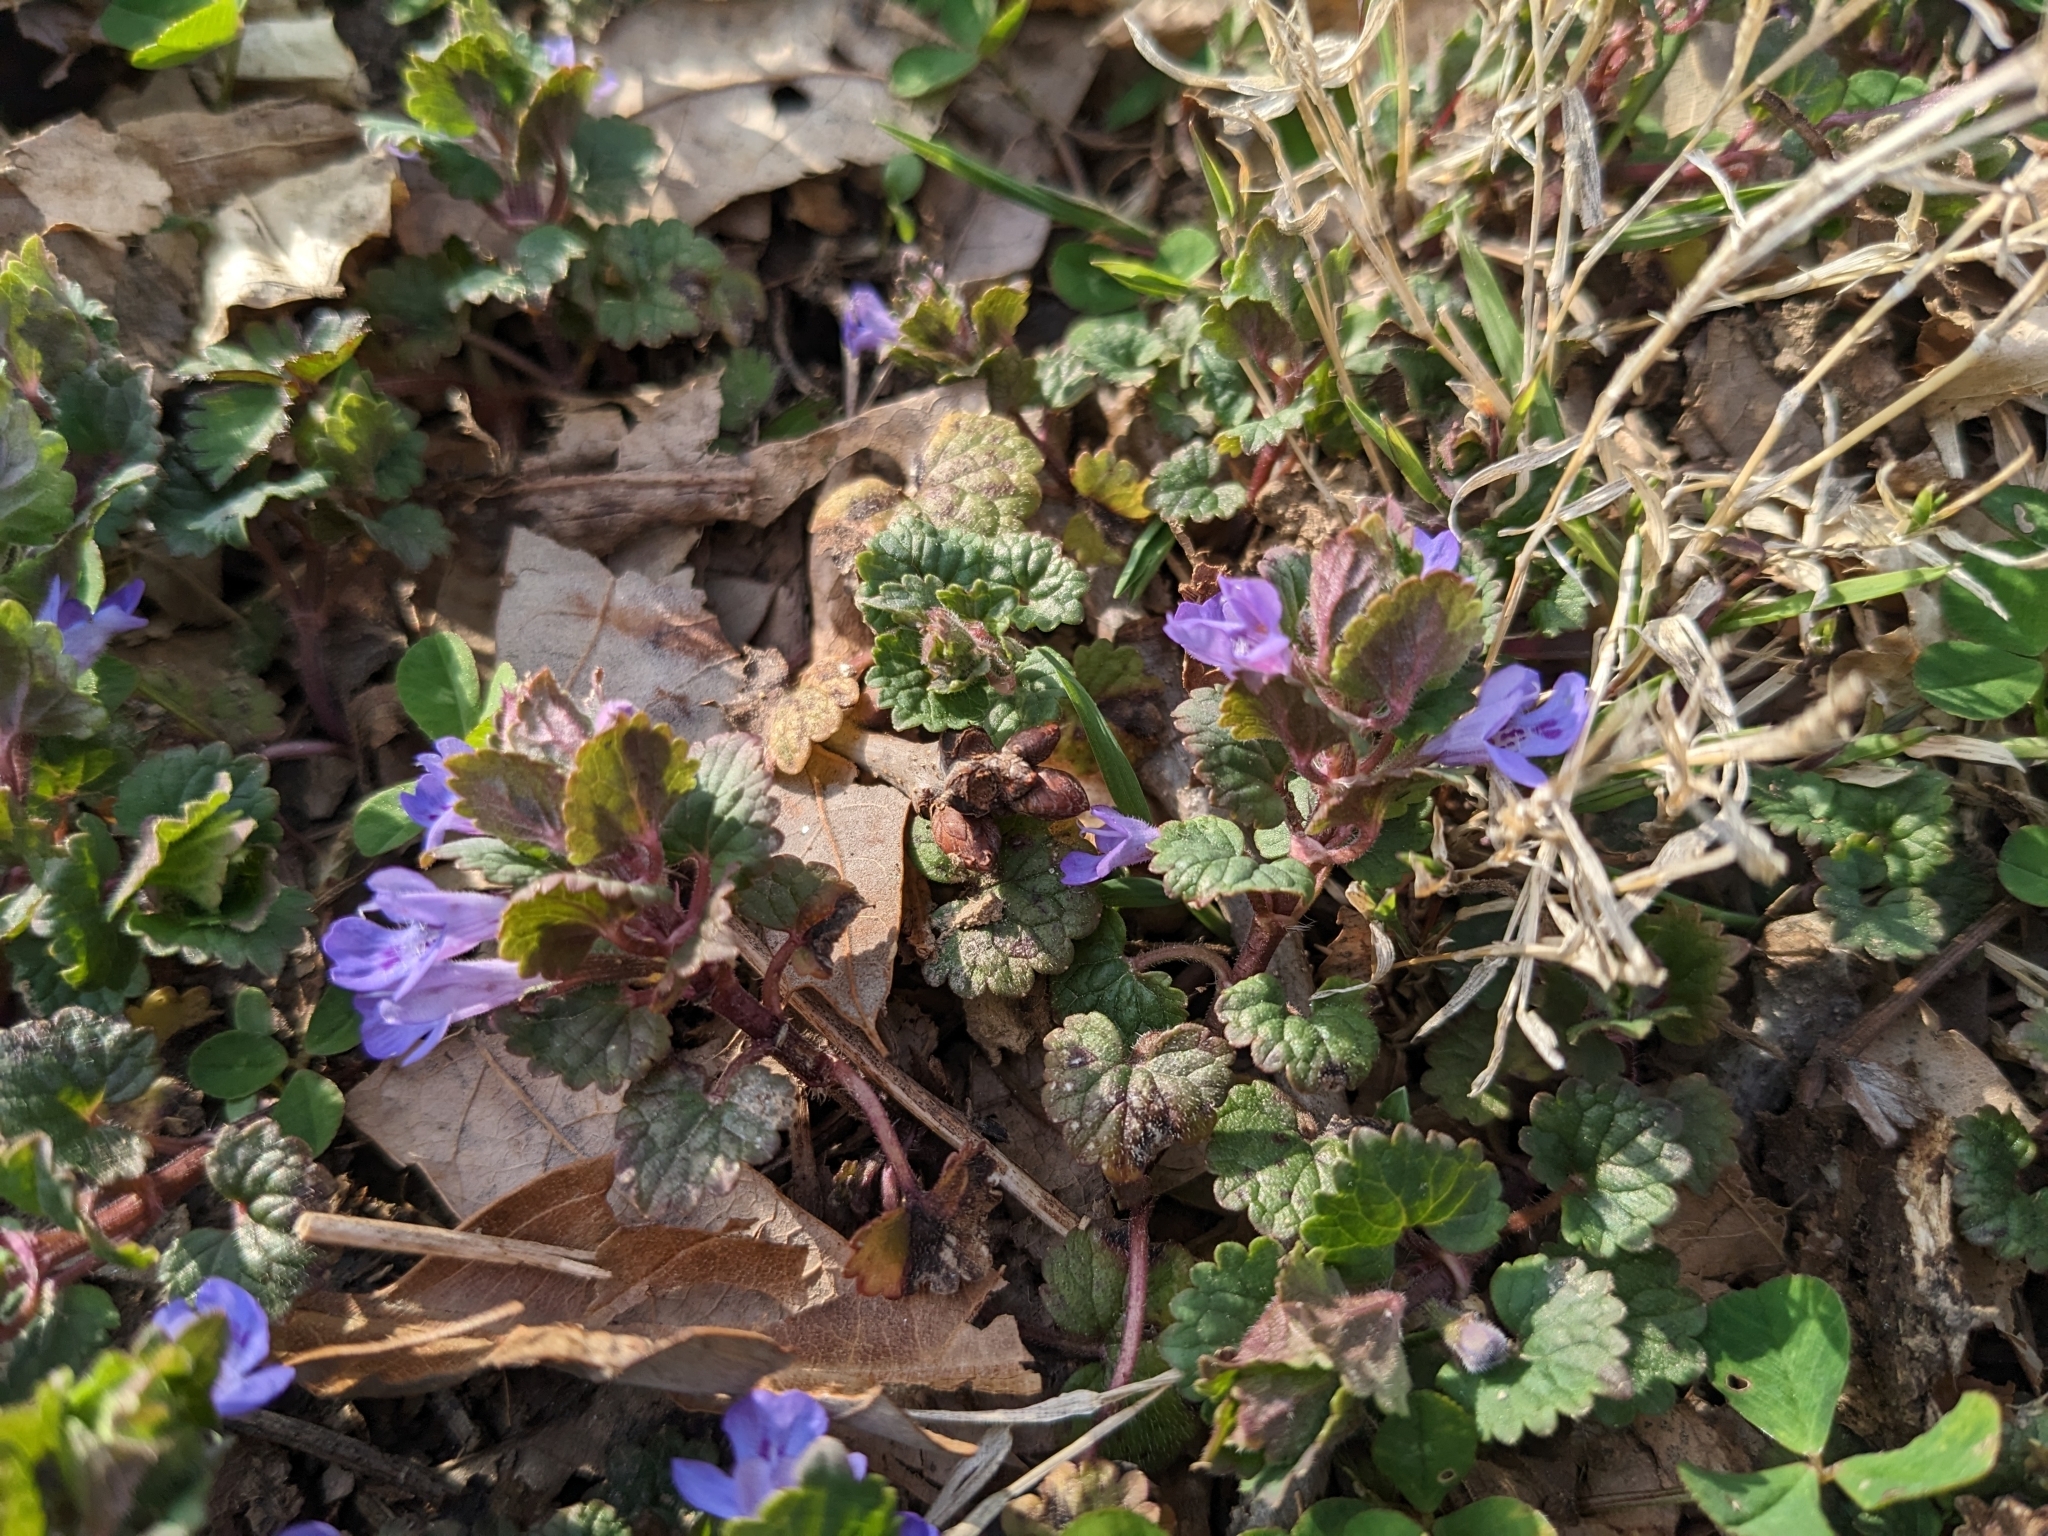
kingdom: Plantae
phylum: Tracheophyta
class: Magnoliopsida
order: Lamiales
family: Lamiaceae
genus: Glechoma
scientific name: Glechoma hederacea
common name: Ground ivy
